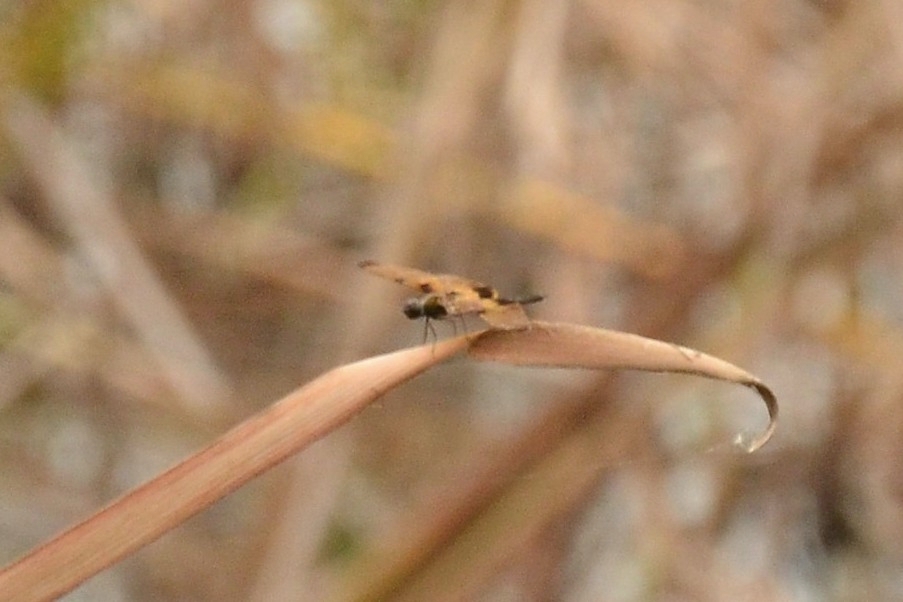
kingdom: Animalia
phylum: Arthropoda
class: Insecta
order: Odonata
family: Libellulidae
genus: Rhyothemis
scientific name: Rhyothemis variegata
